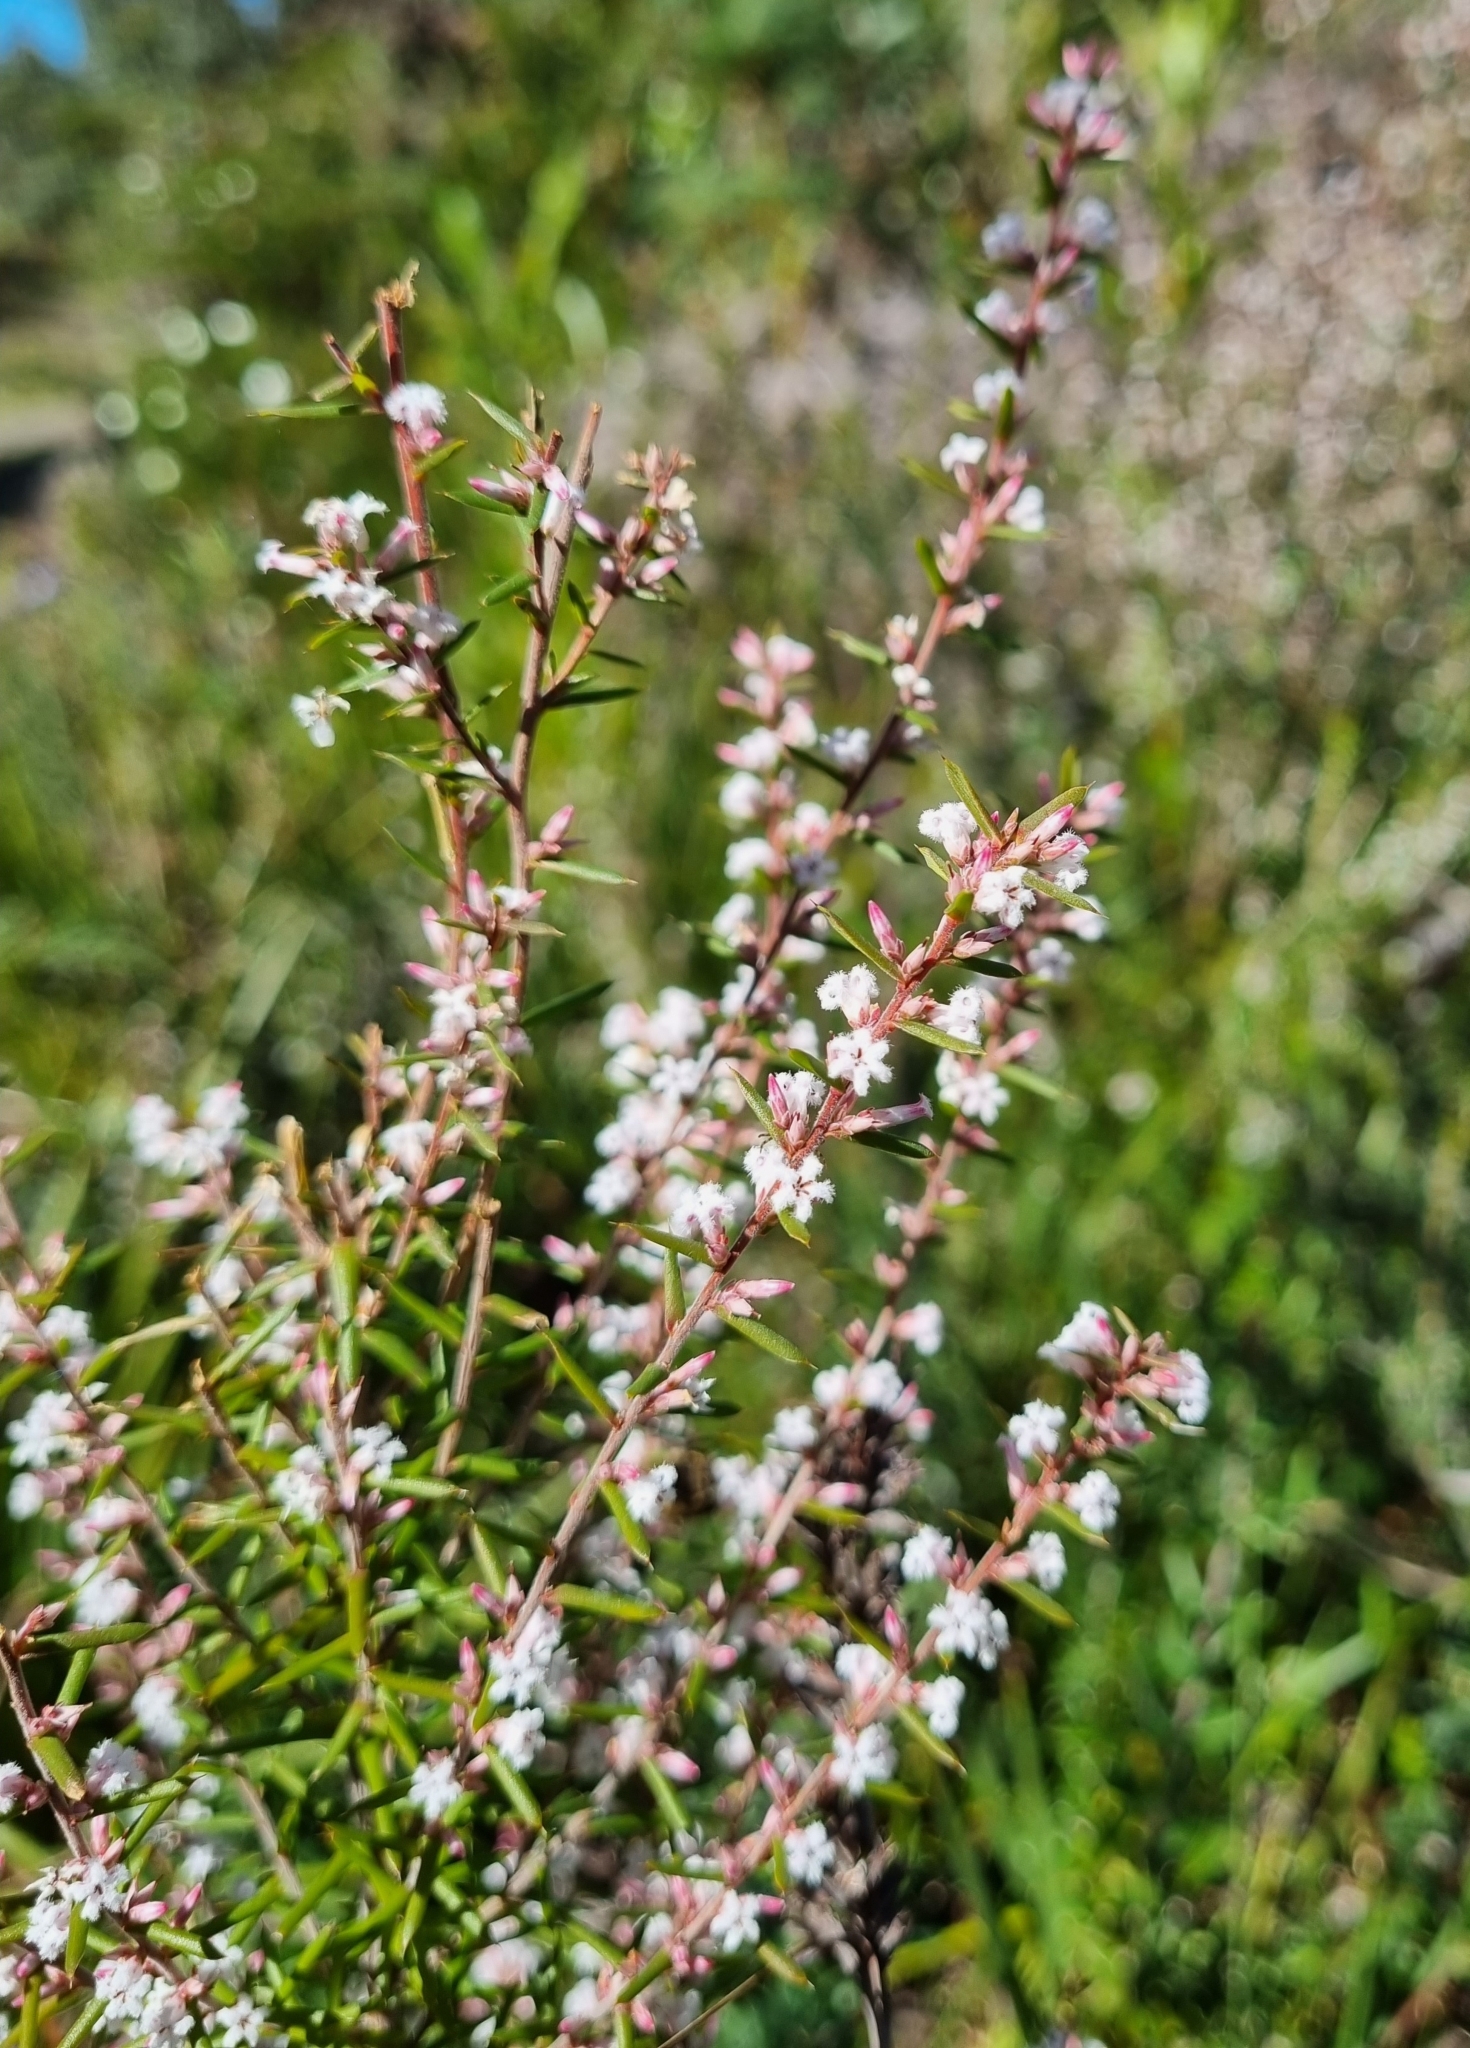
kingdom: Plantae
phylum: Tracheophyta
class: Magnoliopsida
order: Ericales
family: Ericaceae
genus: Styphelia
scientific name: Styphelia ericoides
